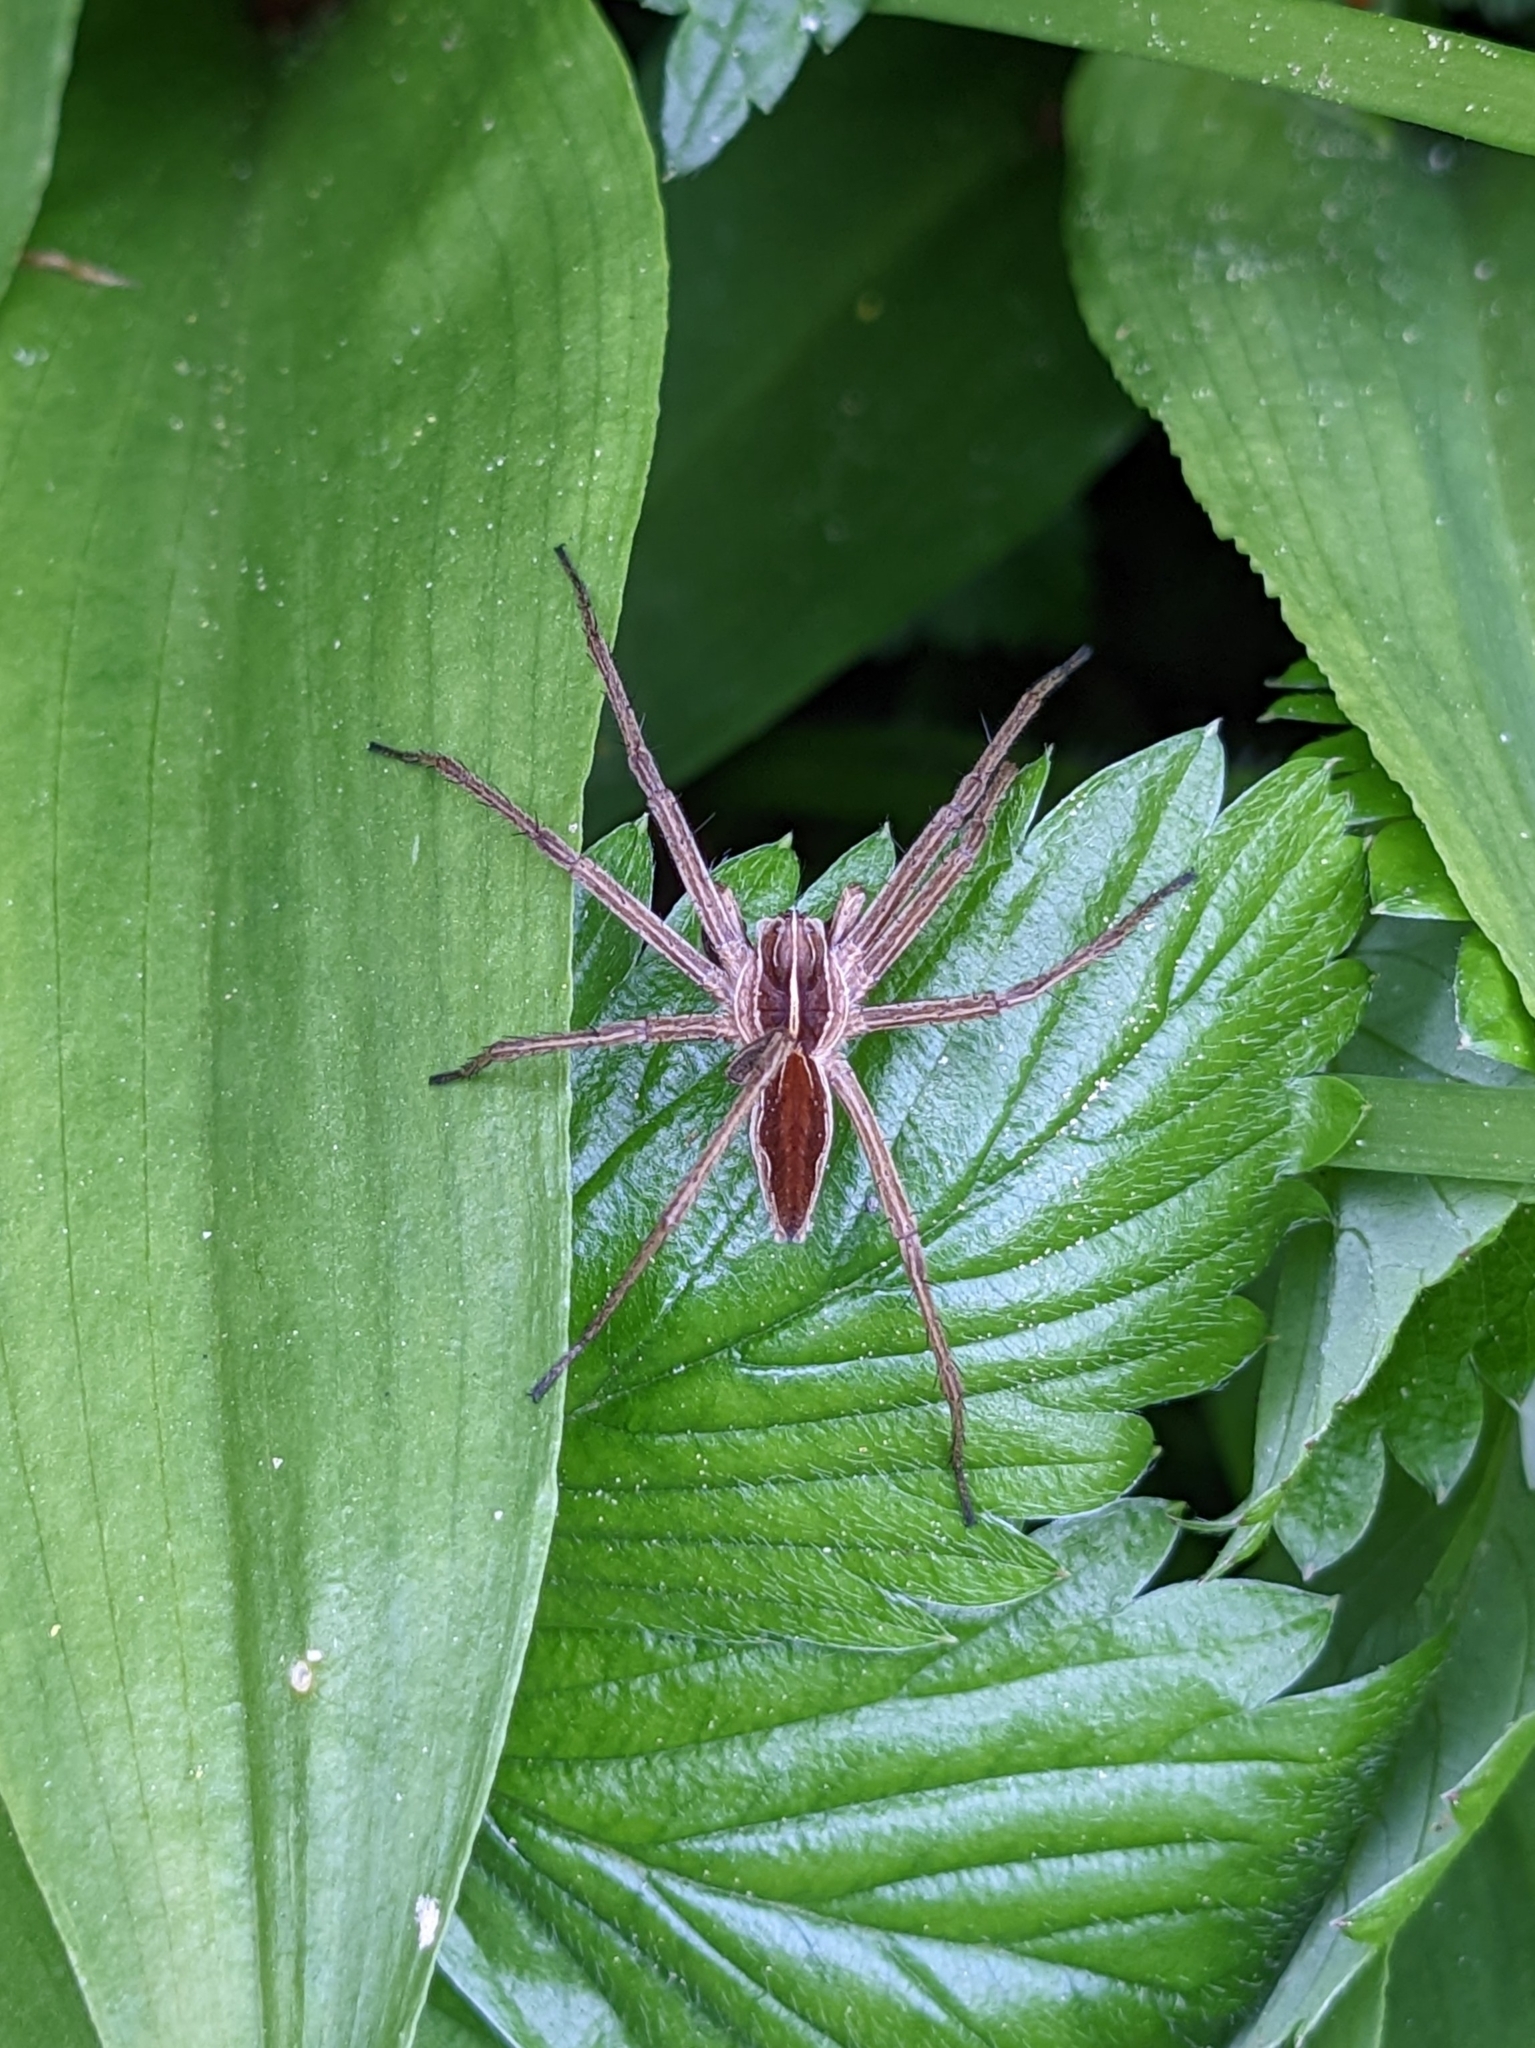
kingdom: Animalia
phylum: Arthropoda
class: Arachnida
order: Araneae
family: Pisauridae
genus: Pisaura
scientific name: Pisaura mirabilis
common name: Tent spider
